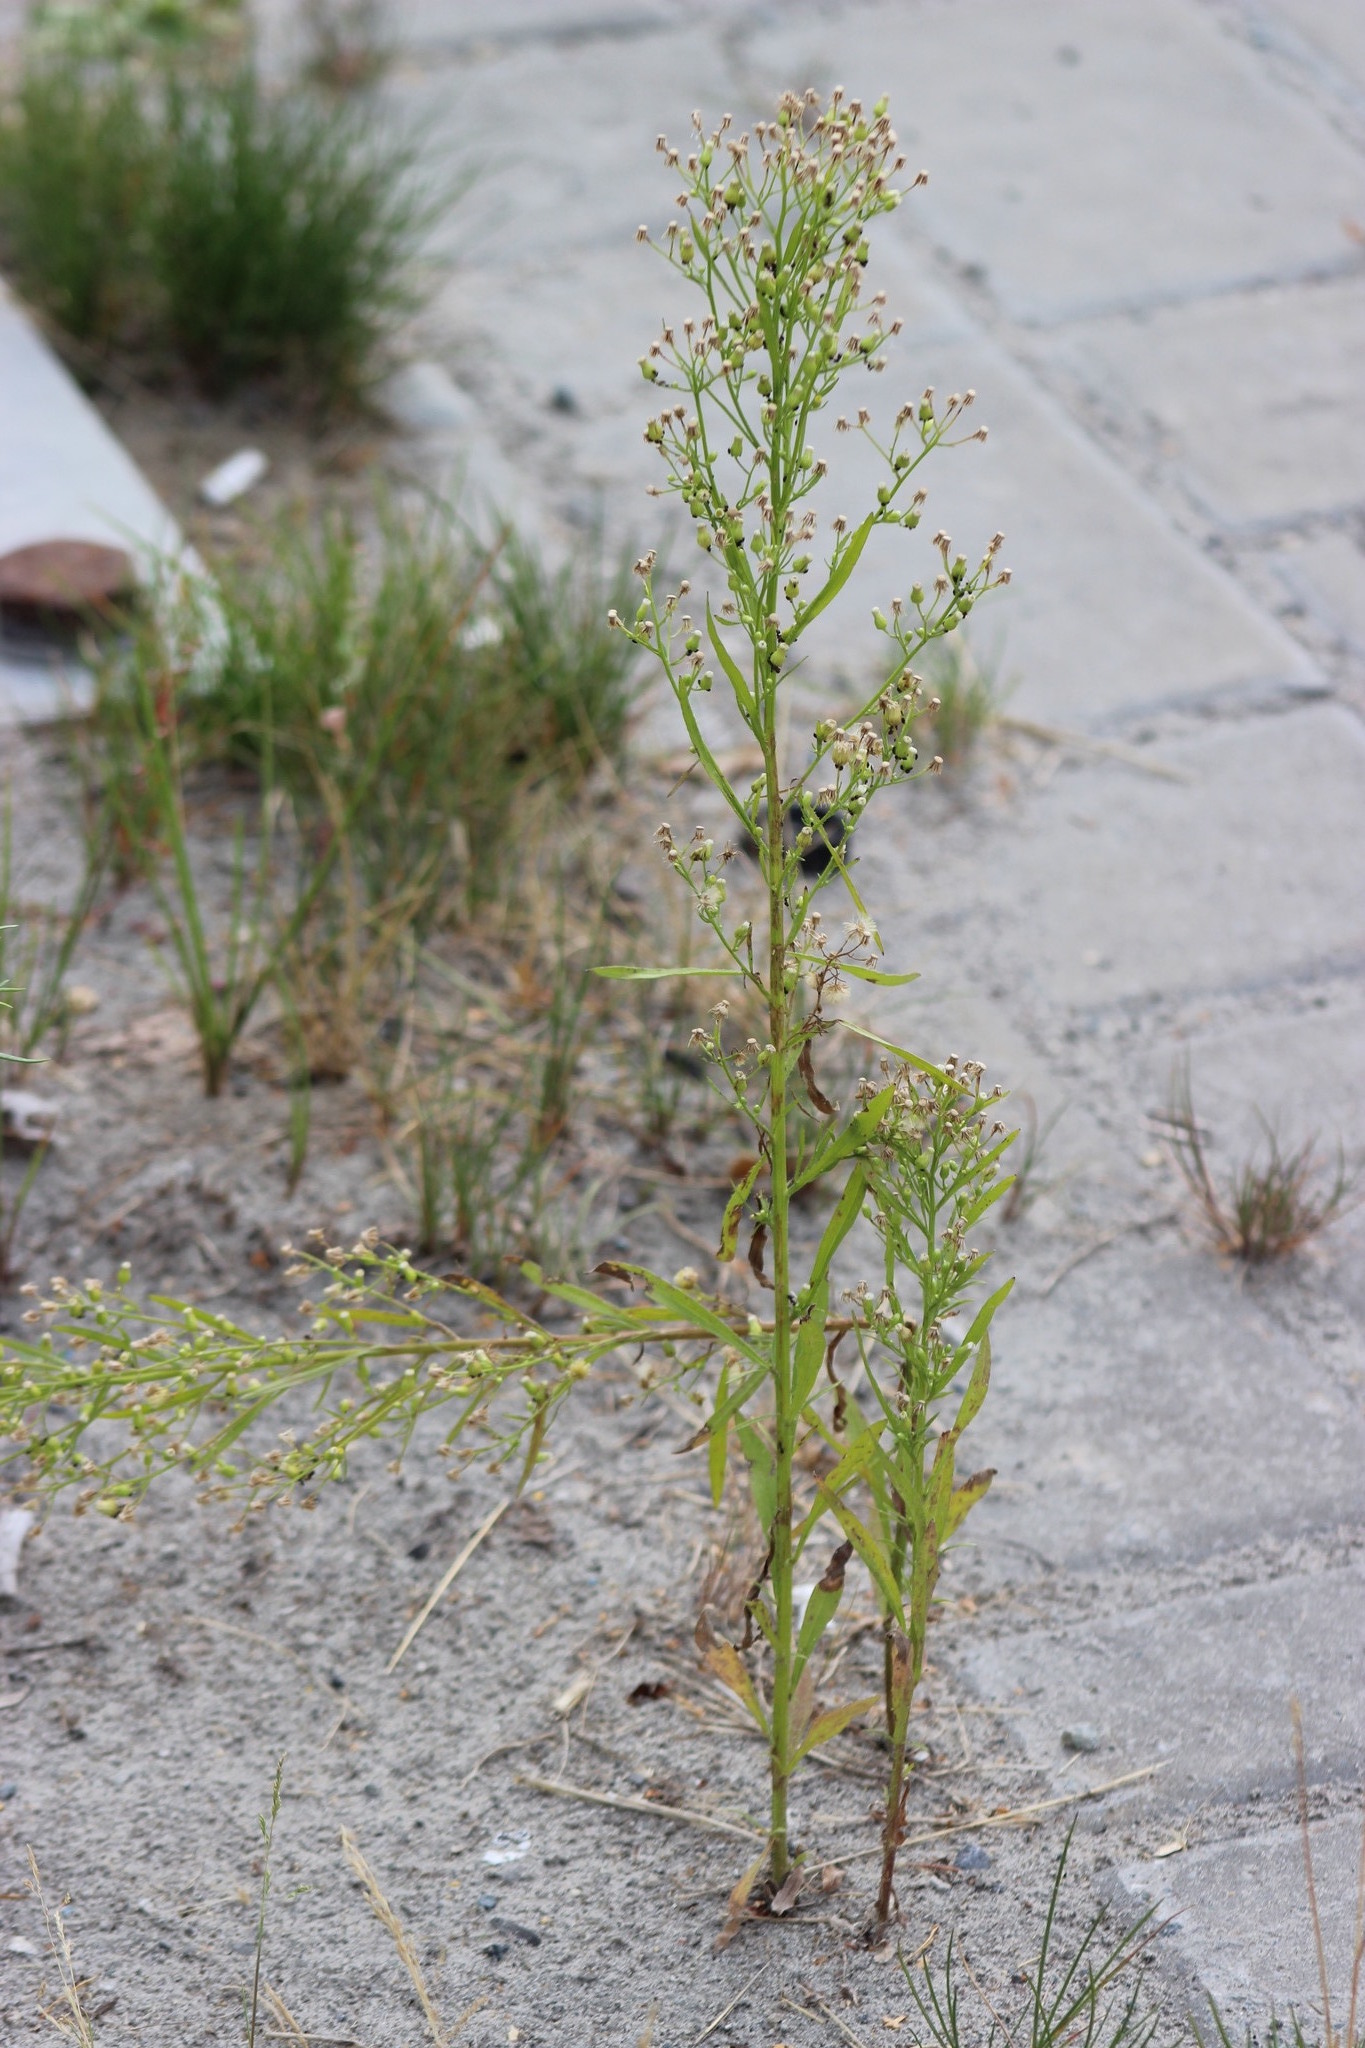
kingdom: Plantae
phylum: Tracheophyta
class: Magnoliopsida
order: Asterales
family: Asteraceae
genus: Erigeron
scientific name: Erigeron canadensis
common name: Canadian fleabane
